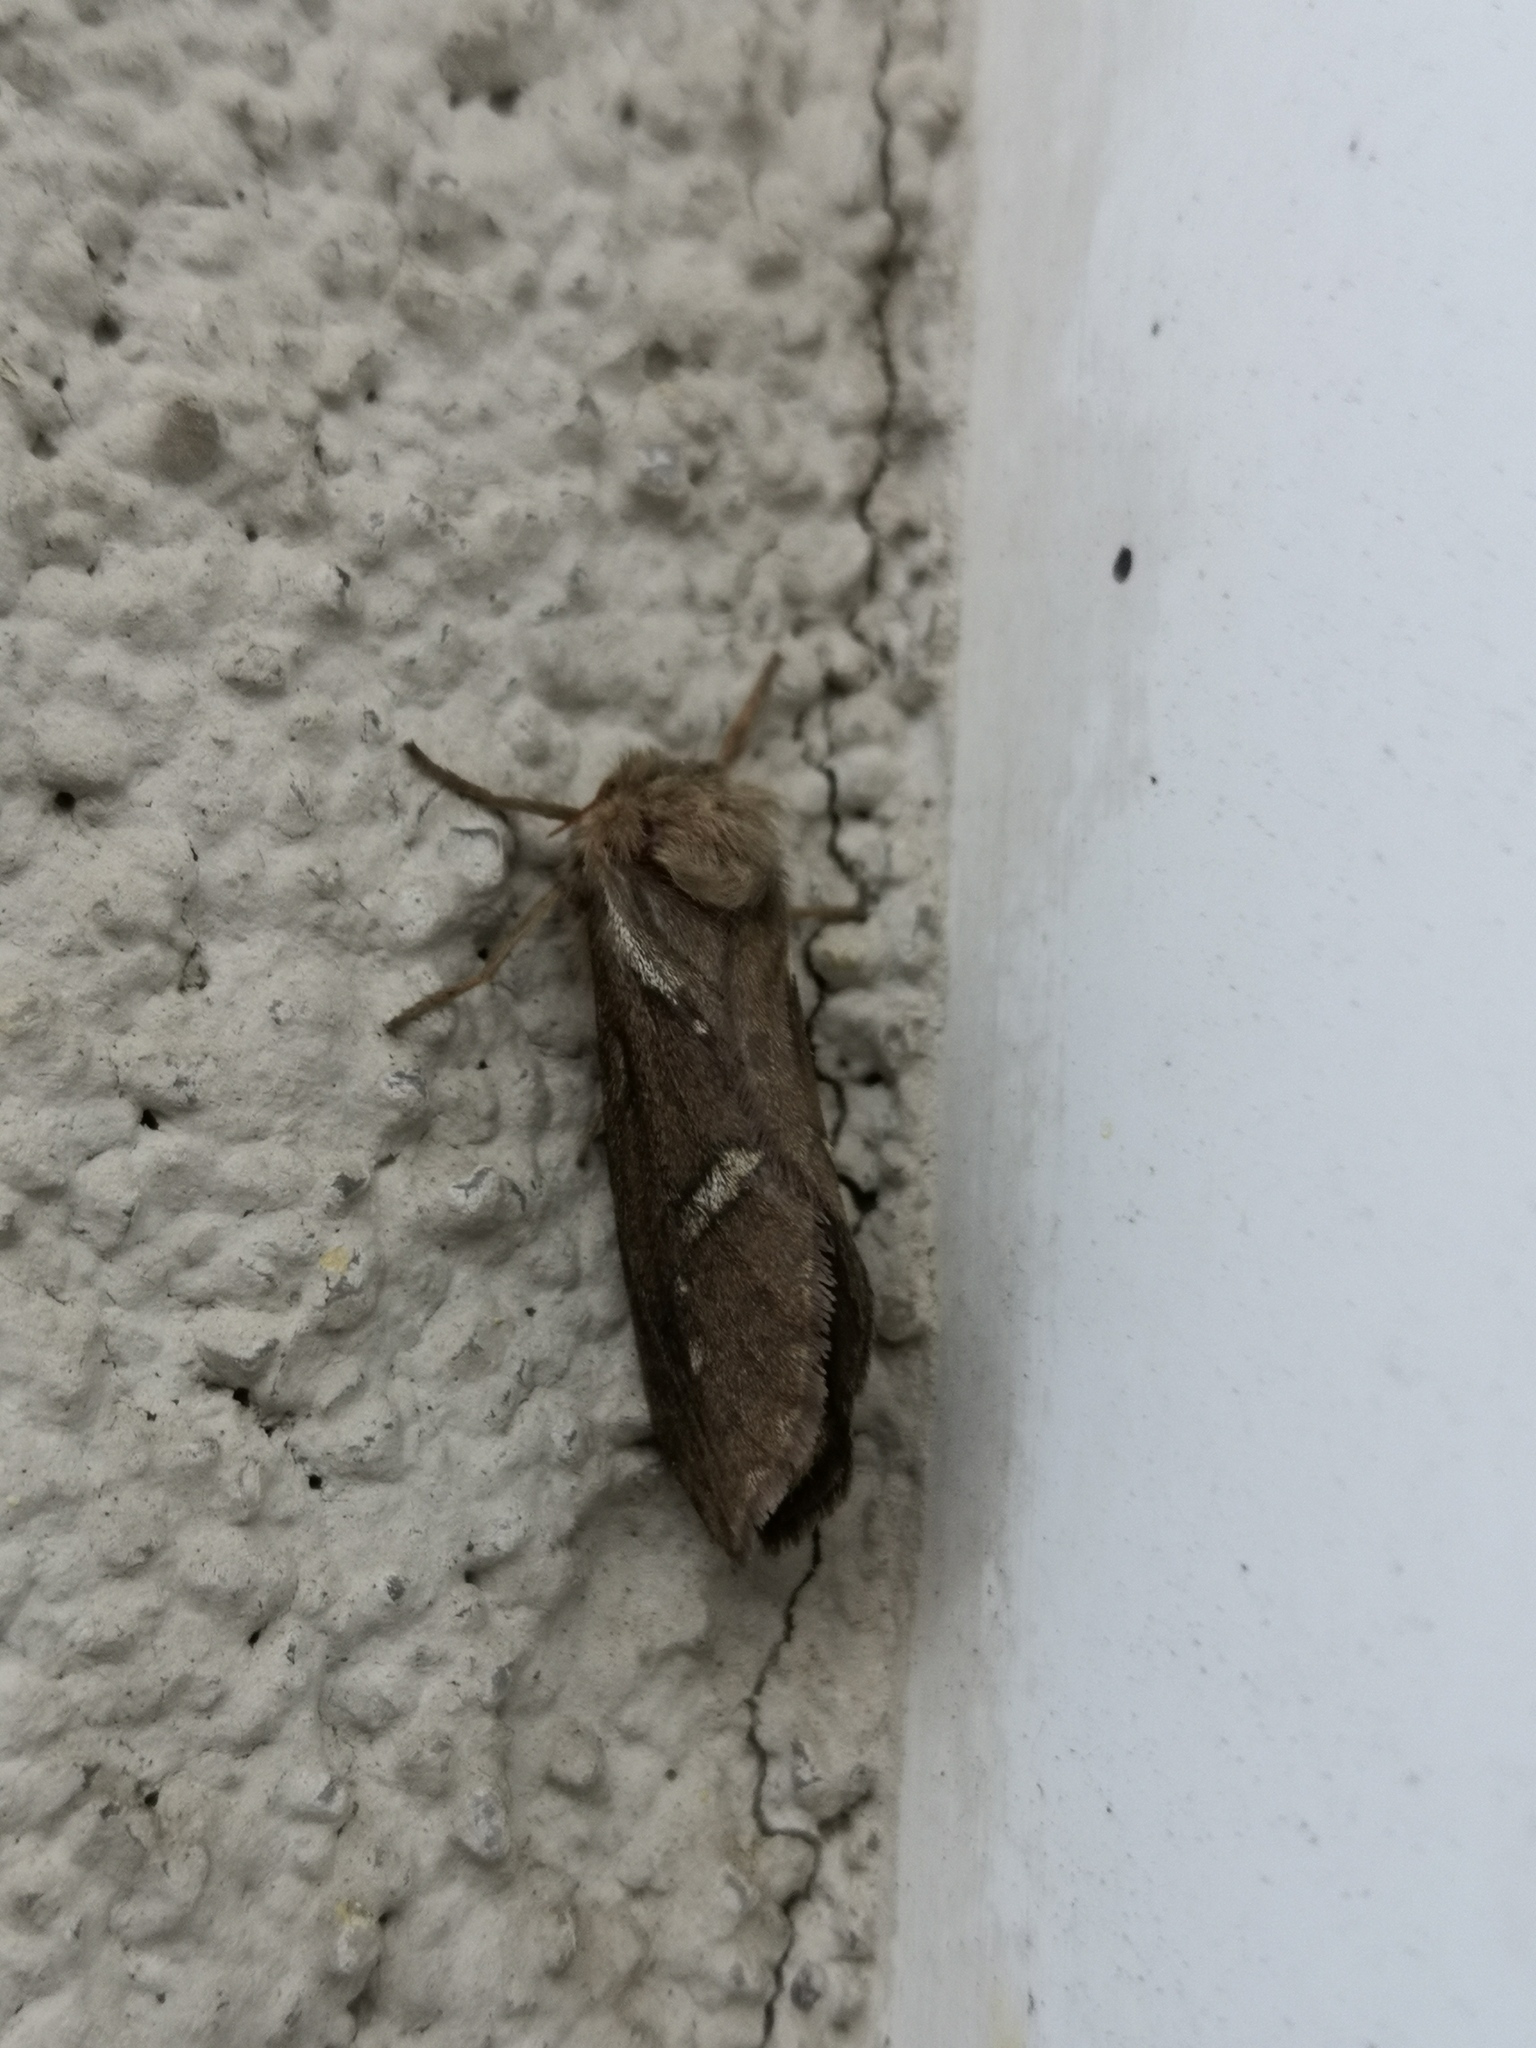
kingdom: Animalia
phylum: Arthropoda
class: Insecta
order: Lepidoptera
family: Hepialidae
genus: Korscheltellus
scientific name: Korscheltellus lupulina
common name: Common swift
